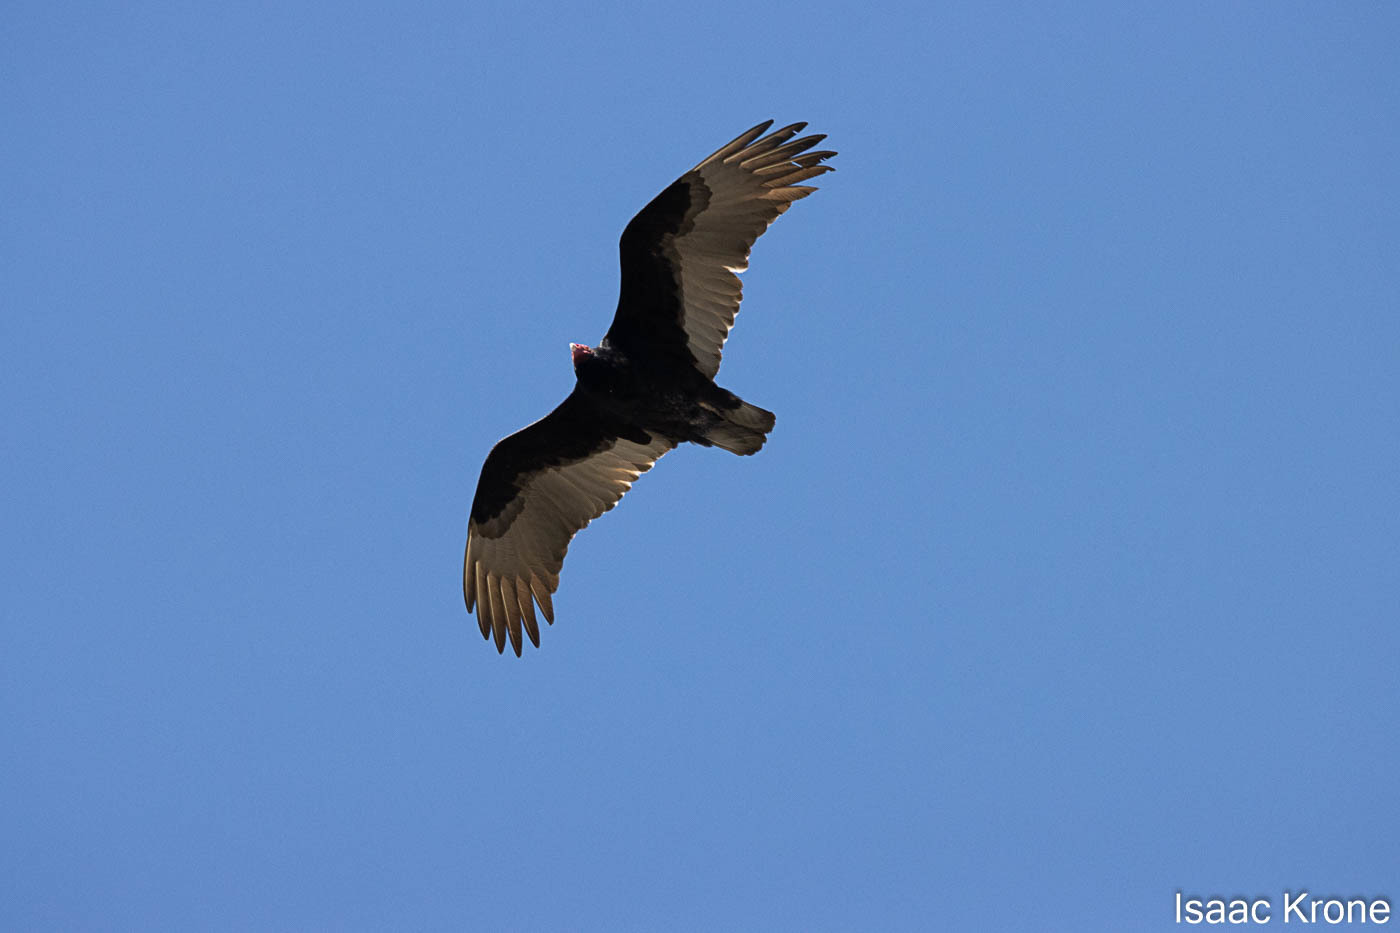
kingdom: Animalia
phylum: Chordata
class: Aves
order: Accipitriformes
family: Cathartidae
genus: Cathartes
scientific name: Cathartes aura
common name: Turkey vulture
